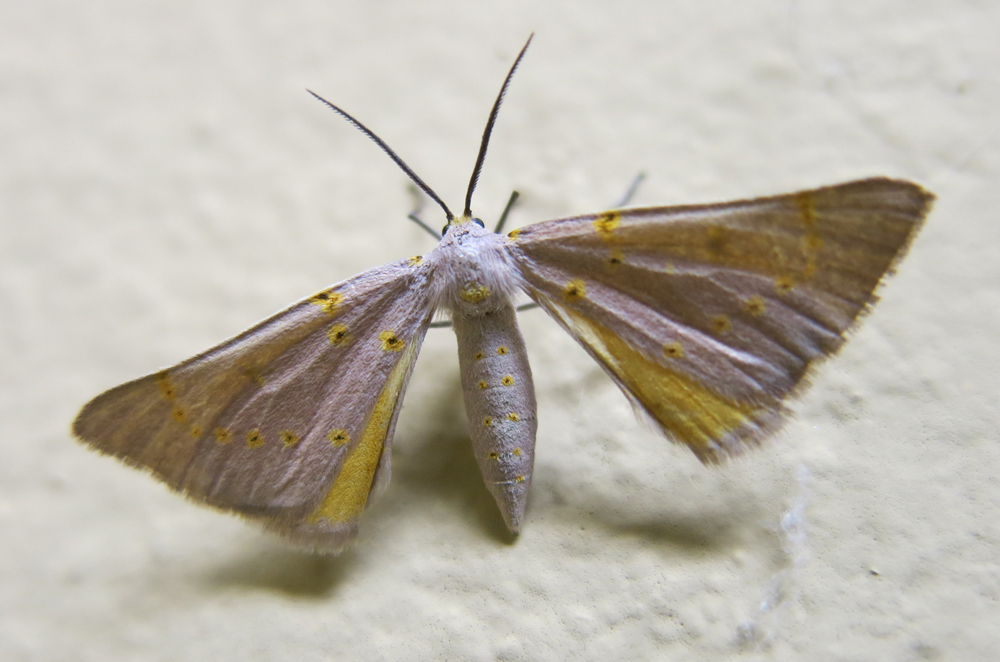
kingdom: Animalia
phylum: Arthropoda
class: Insecta
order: Lepidoptera
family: Geometridae
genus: Nassinia
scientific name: Nassinia pretoria
